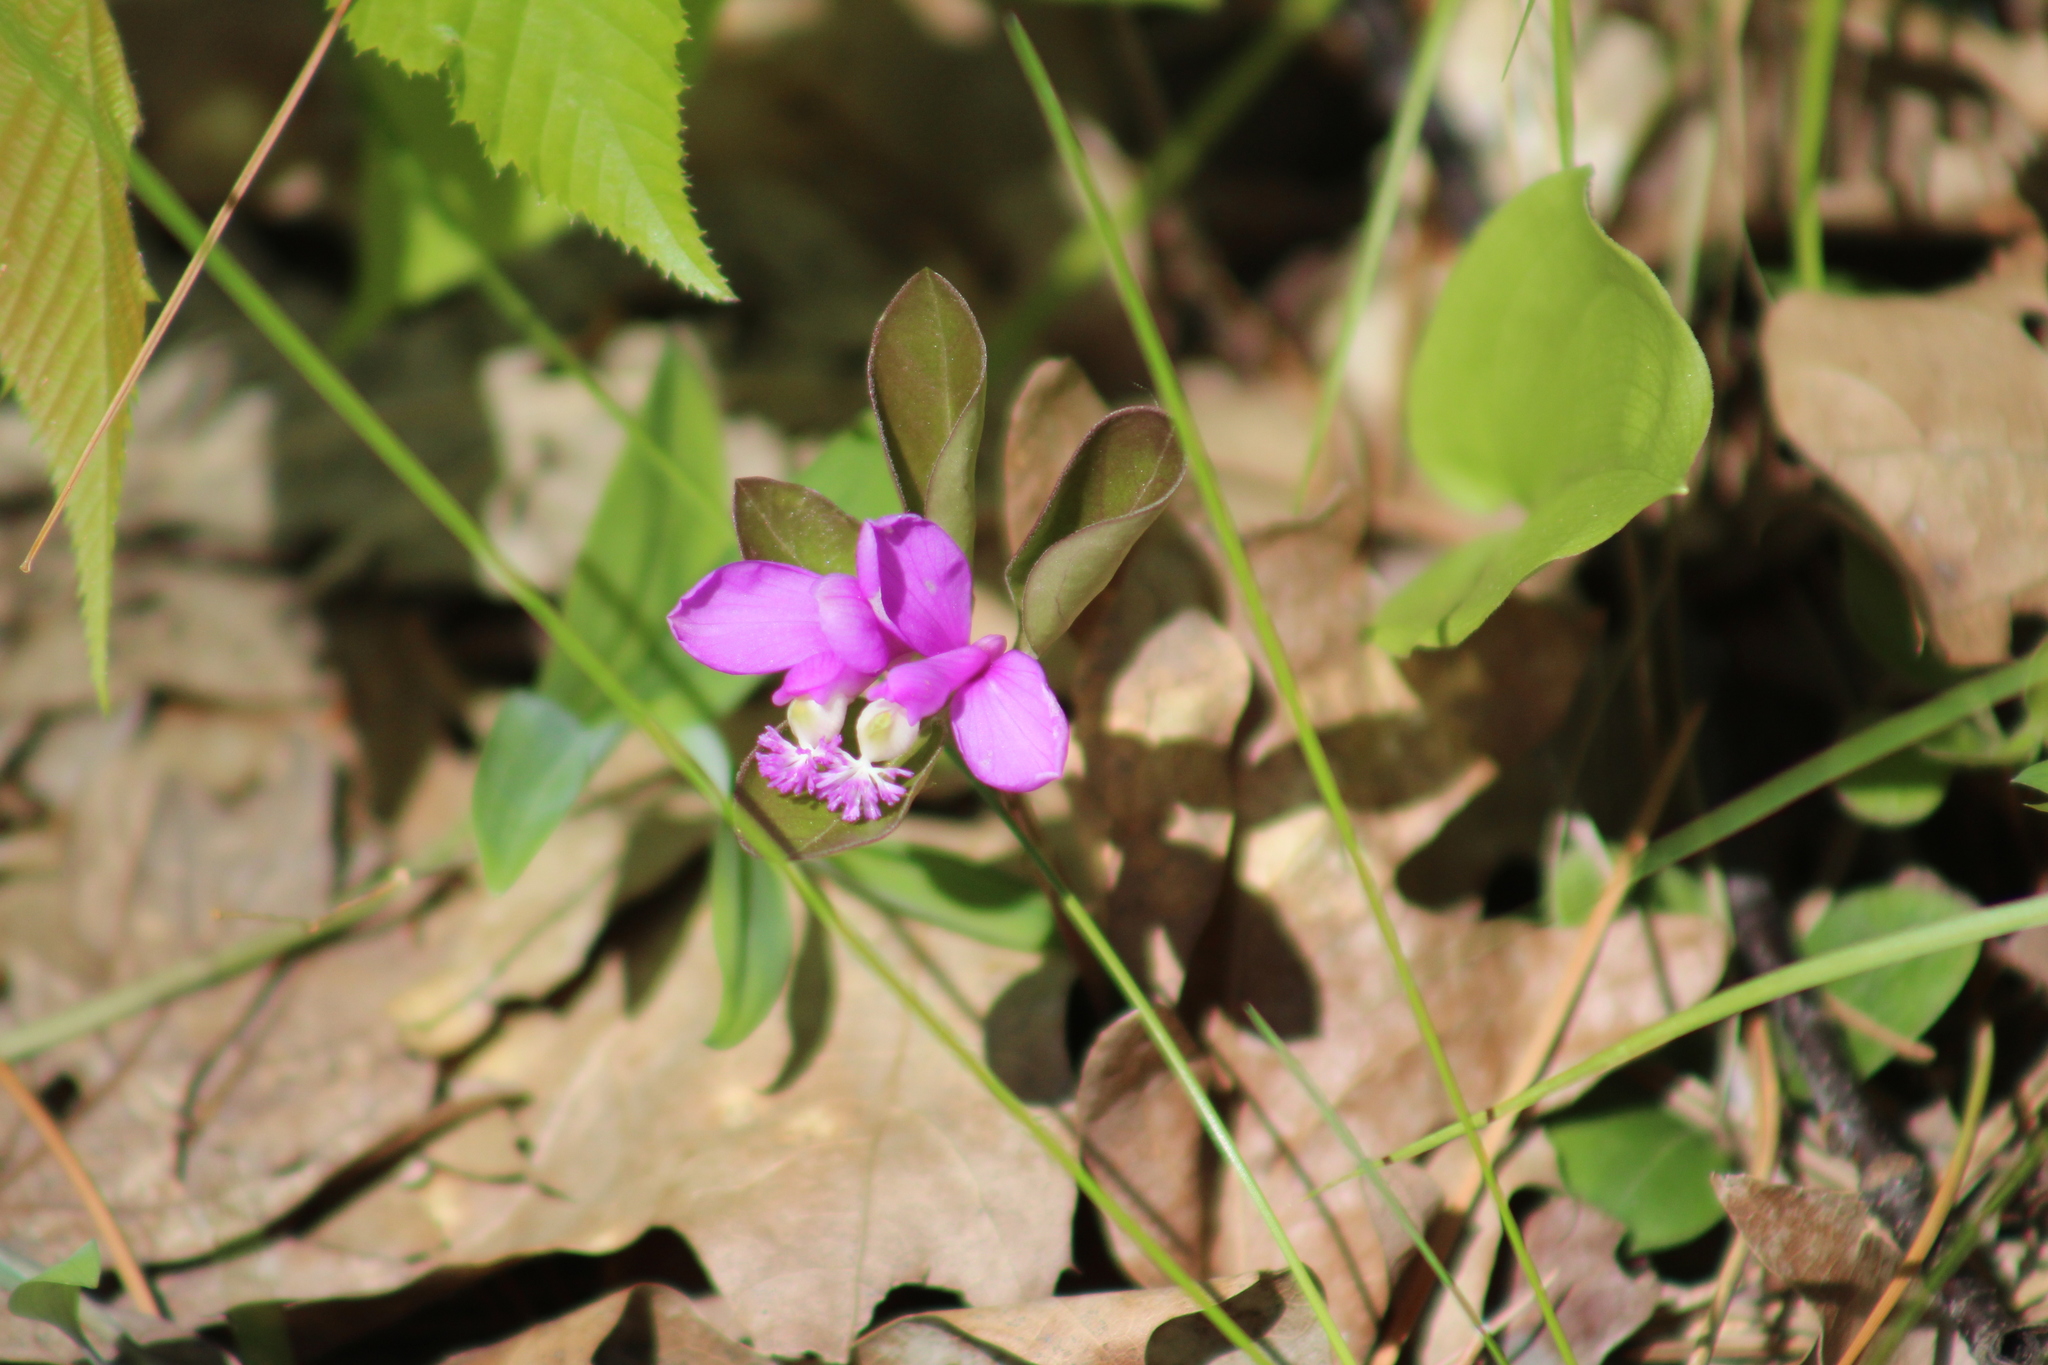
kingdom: Plantae
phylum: Tracheophyta
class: Magnoliopsida
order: Fabales
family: Polygalaceae
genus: Polygaloides
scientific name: Polygaloides paucifolia
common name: Bird-on-the-wing
